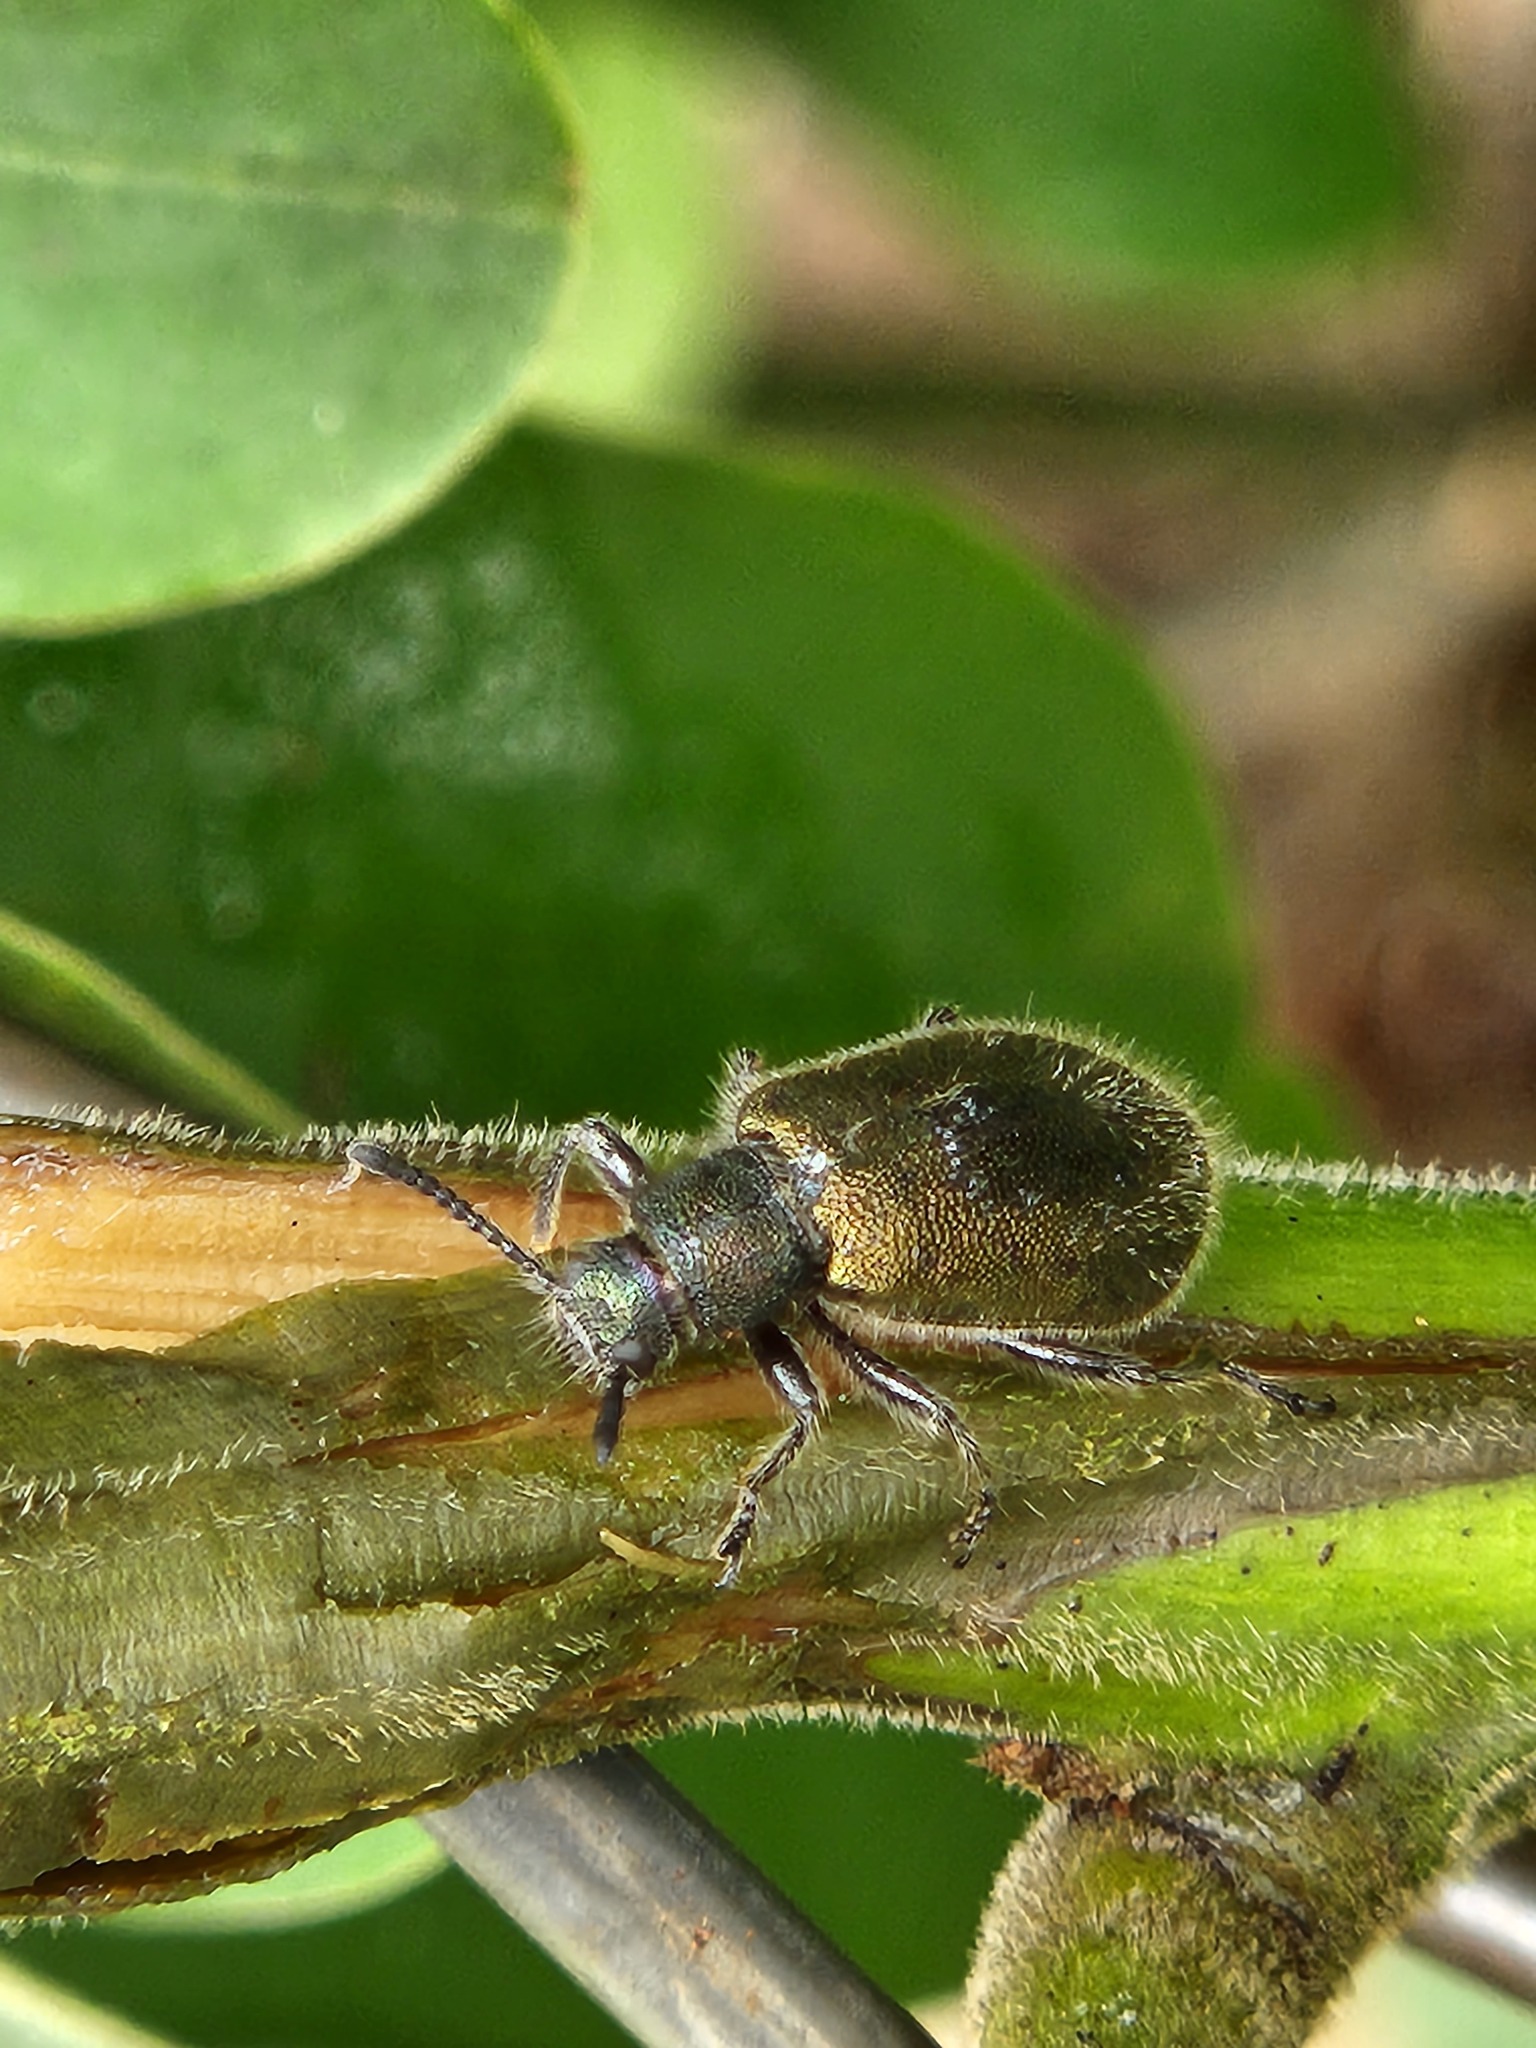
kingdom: Animalia
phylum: Arthropoda
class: Insecta
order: Coleoptera
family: Tenebrionidae
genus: Lagria
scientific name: Lagria villosa
